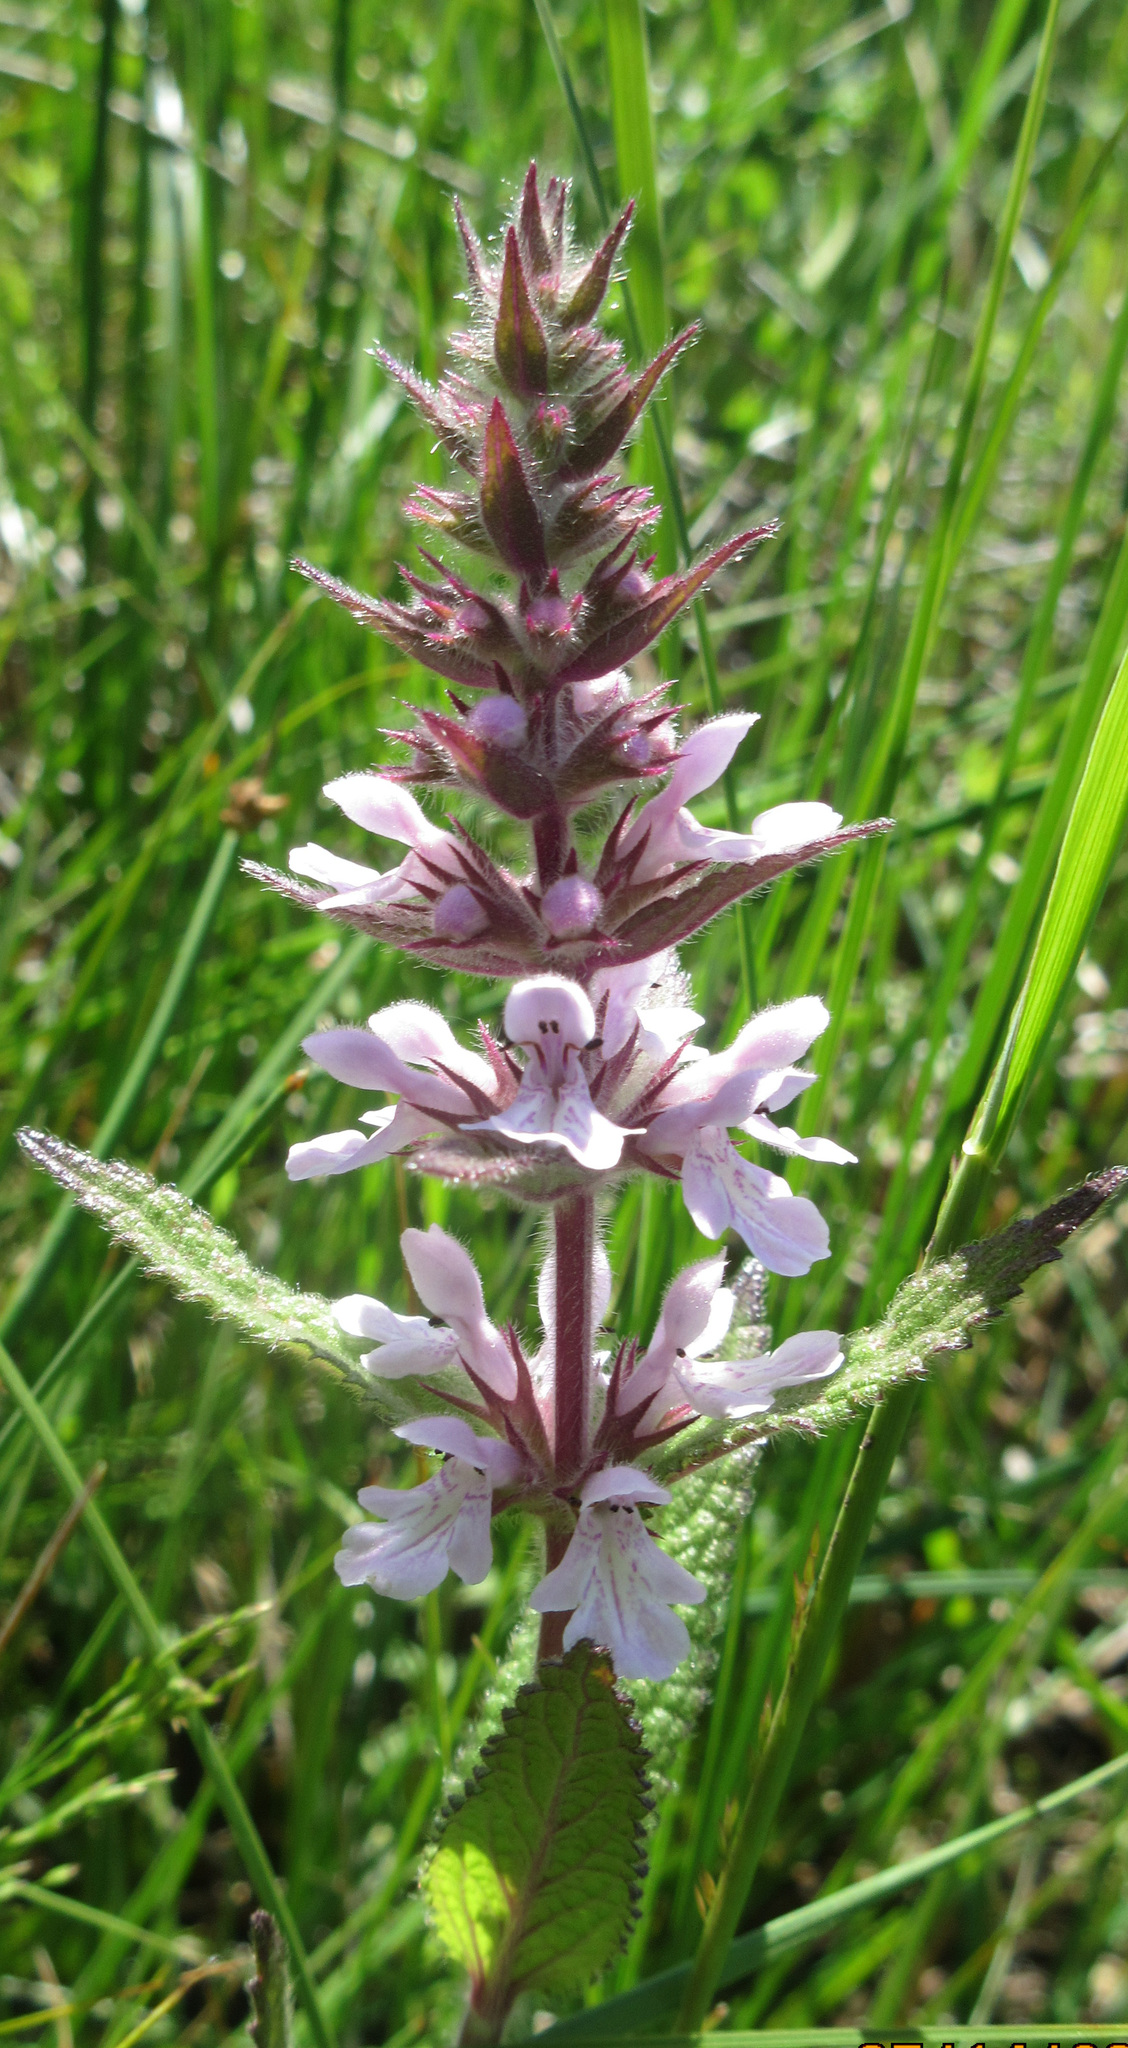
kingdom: Plantae
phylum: Tracheophyta
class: Magnoliopsida
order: Lamiales
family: Lamiaceae
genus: Stachys
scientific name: Stachys pilosa
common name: Hairy hedge-nettle
